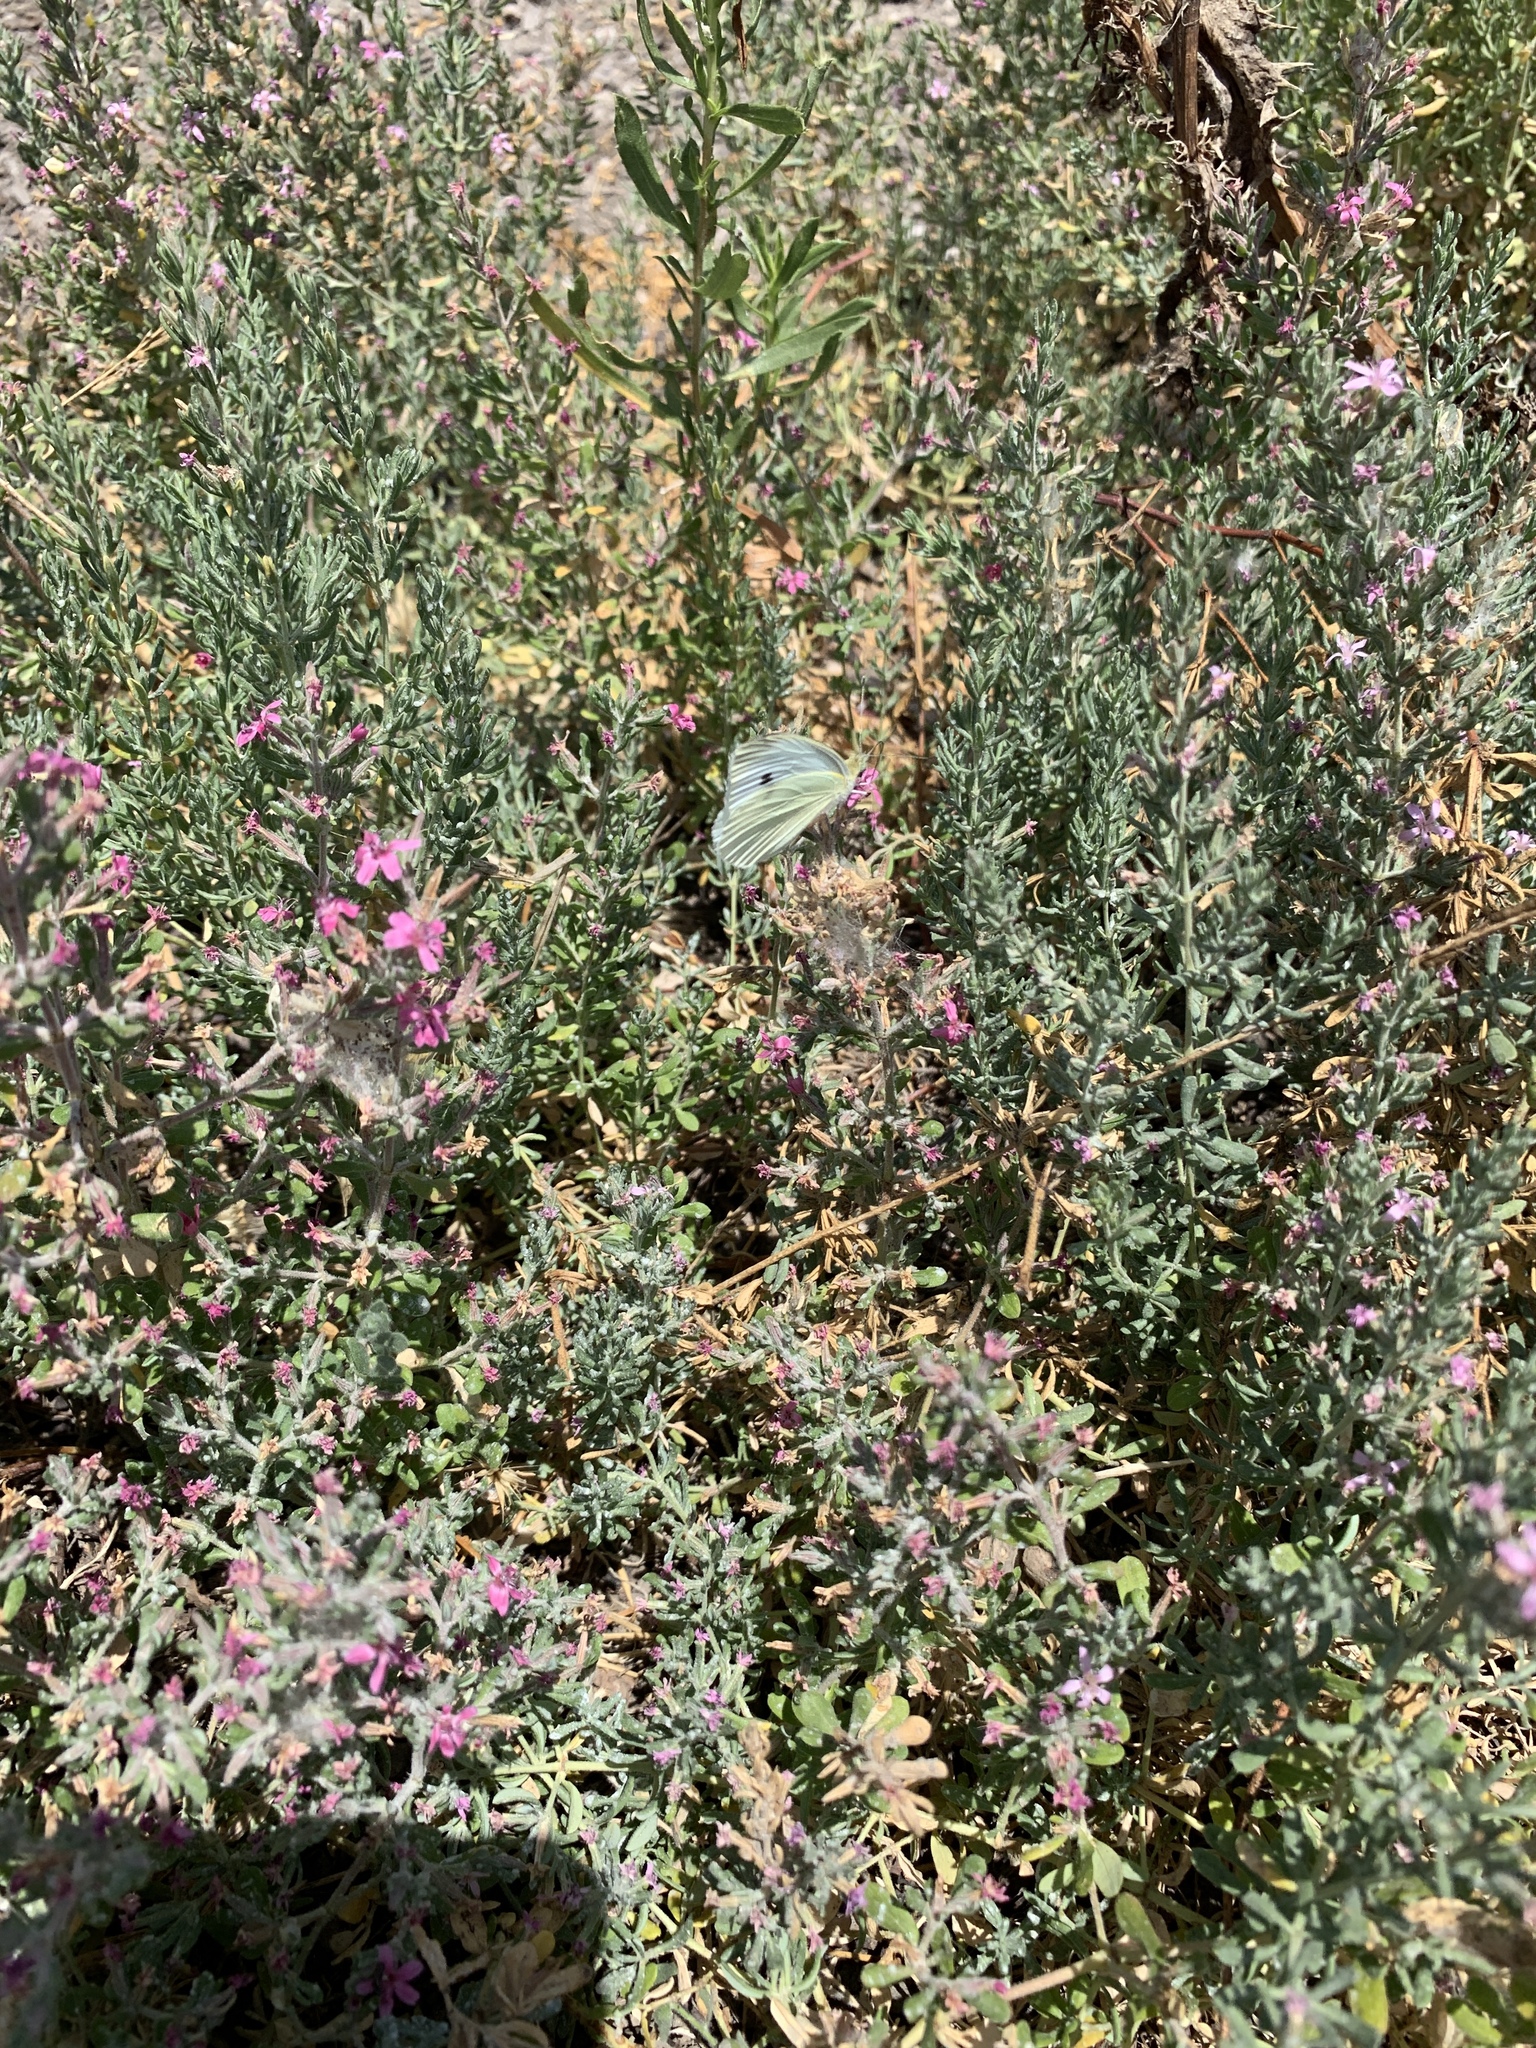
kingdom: Animalia
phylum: Arthropoda
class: Insecta
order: Lepidoptera
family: Pieridae
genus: Pieris
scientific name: Pieris rapae
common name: Small white
